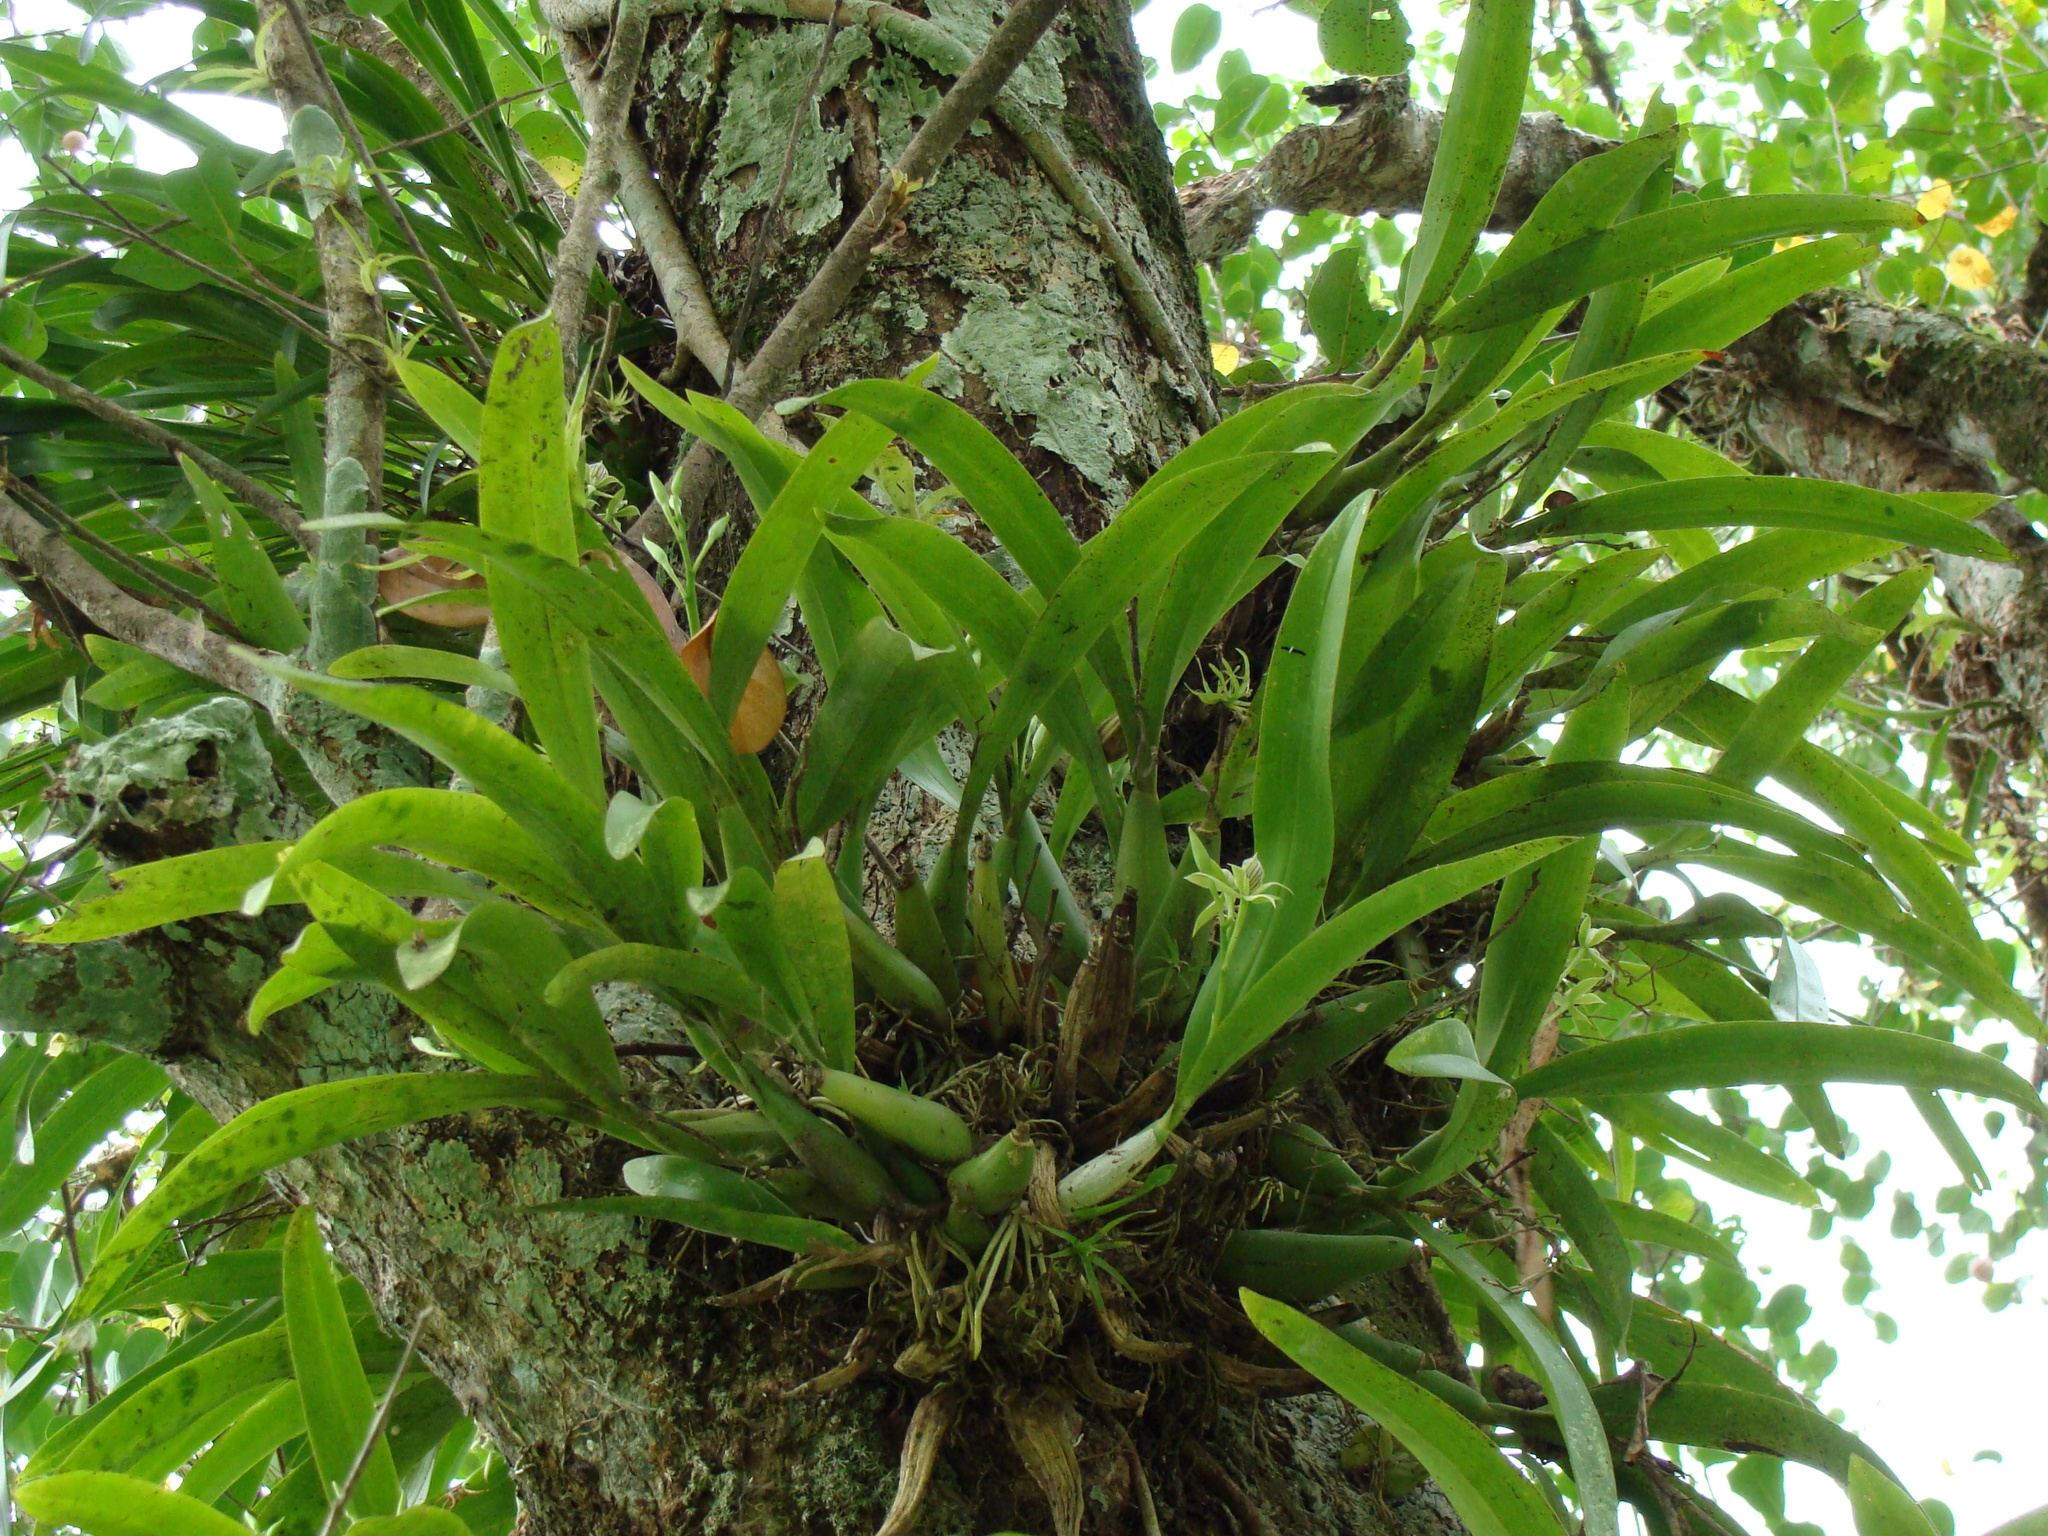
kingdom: Plantae
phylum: Tracheophyta
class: Liliopsida
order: Asparagales
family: Orchidaceae
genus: Prosthechea
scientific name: Prosthechea chacaoensis
